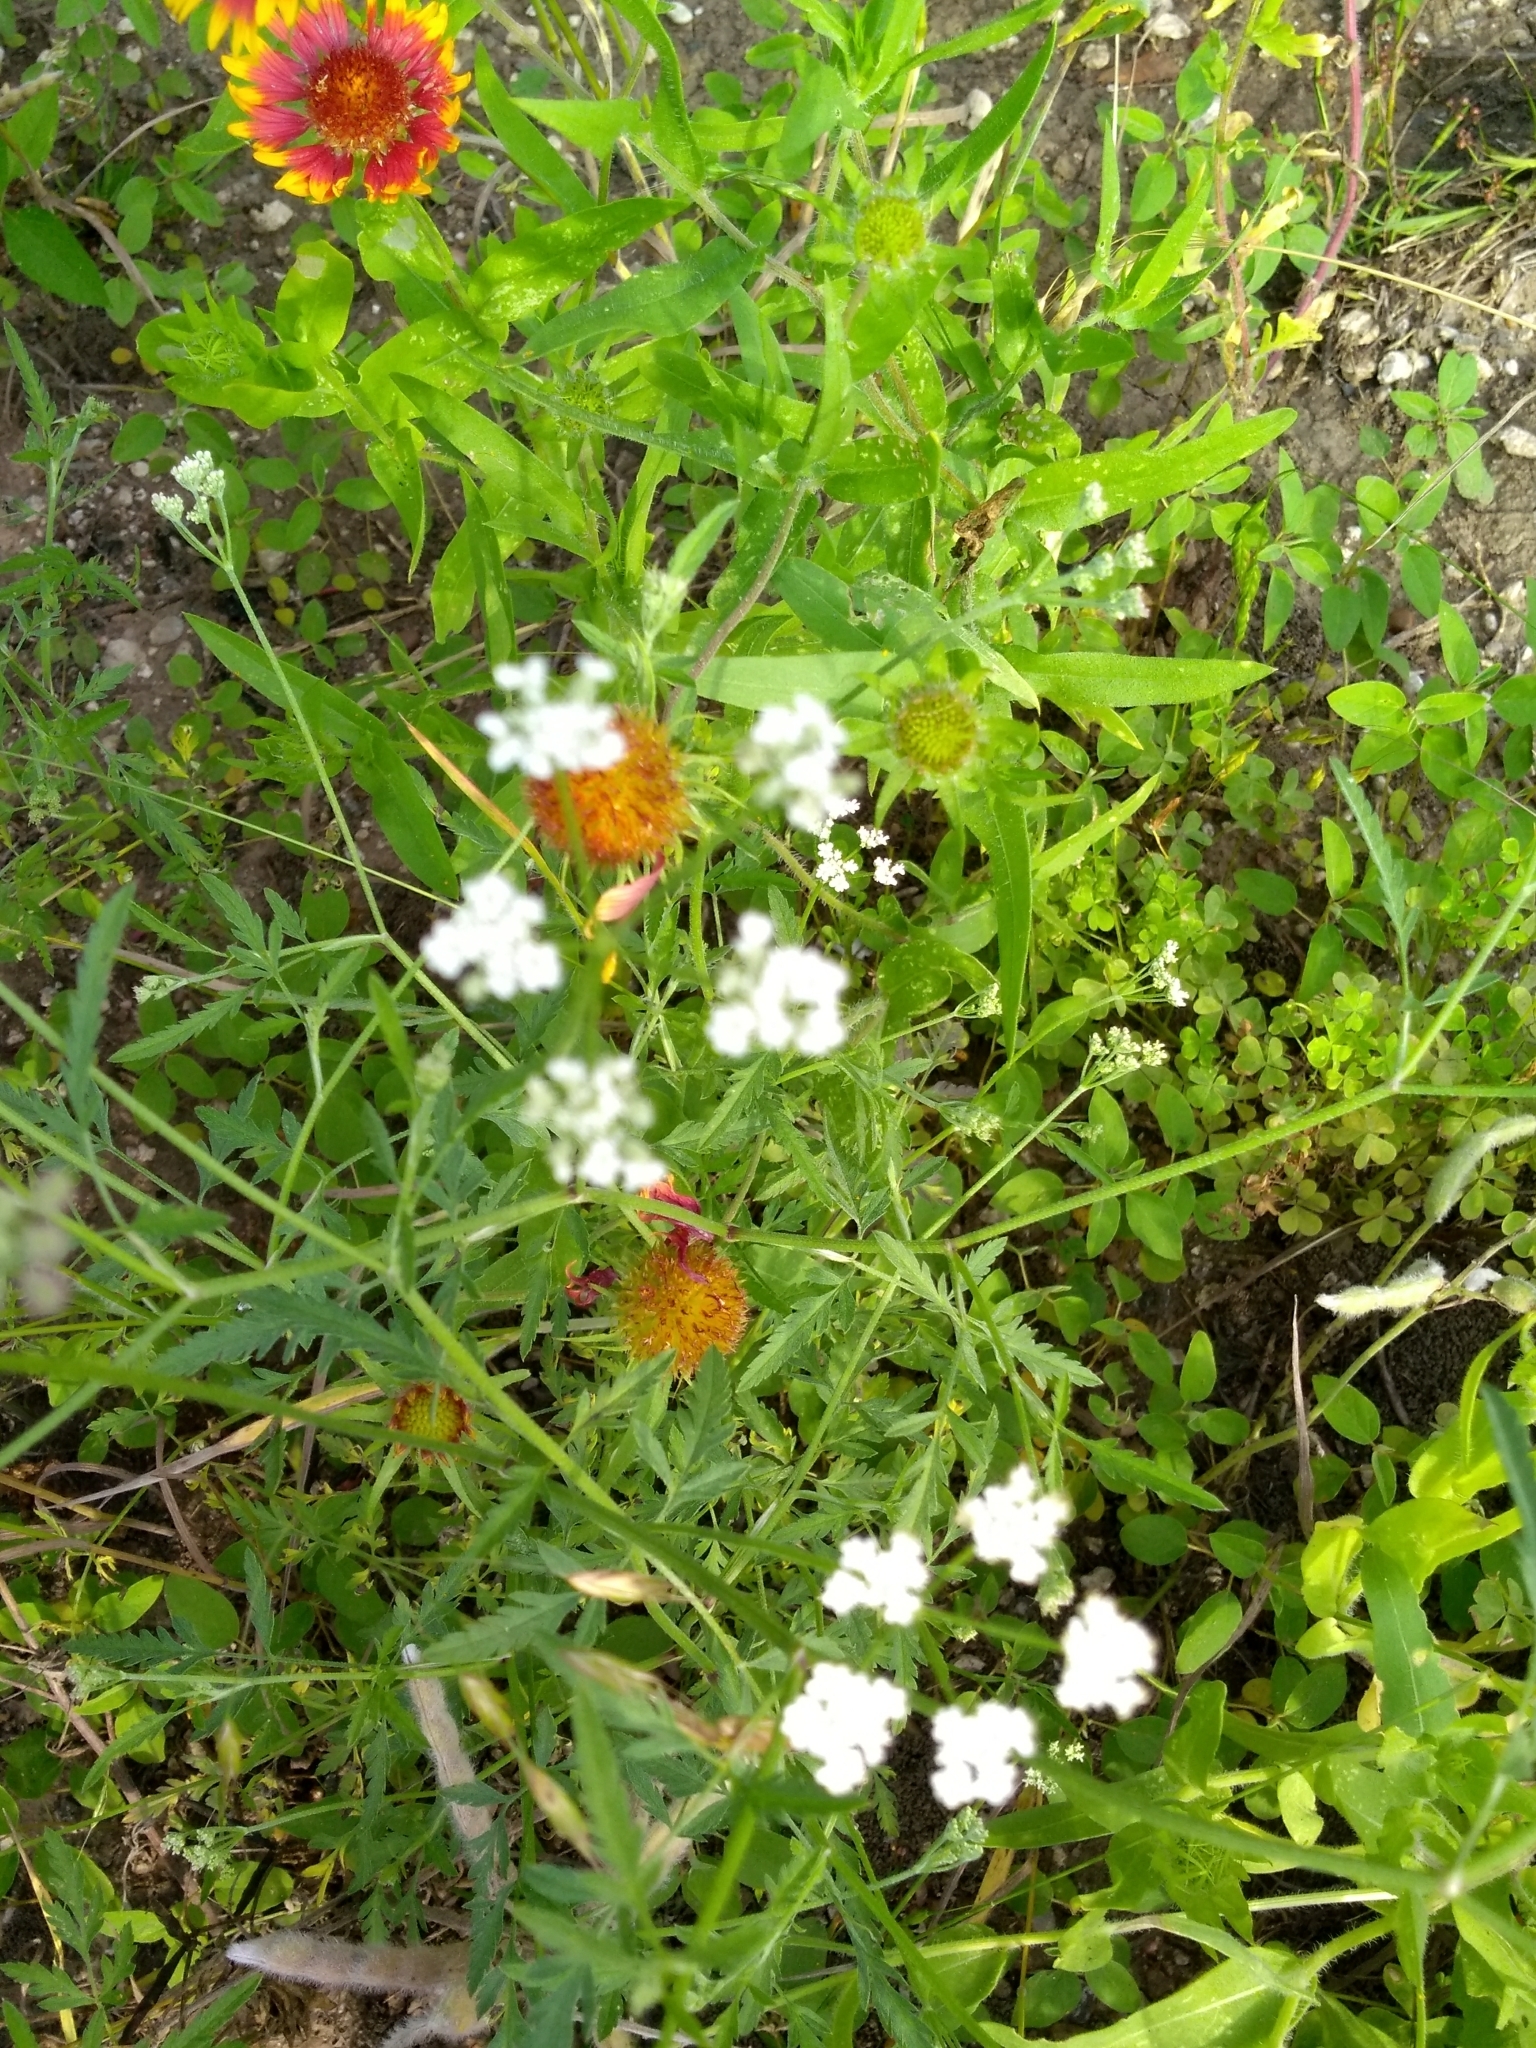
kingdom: Plantae
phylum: Tracheophyta
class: Magnoliopsida
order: Apiales
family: Apiaceae
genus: Torilis
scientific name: Torilis arvensis
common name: Spreading hedge-parsley
